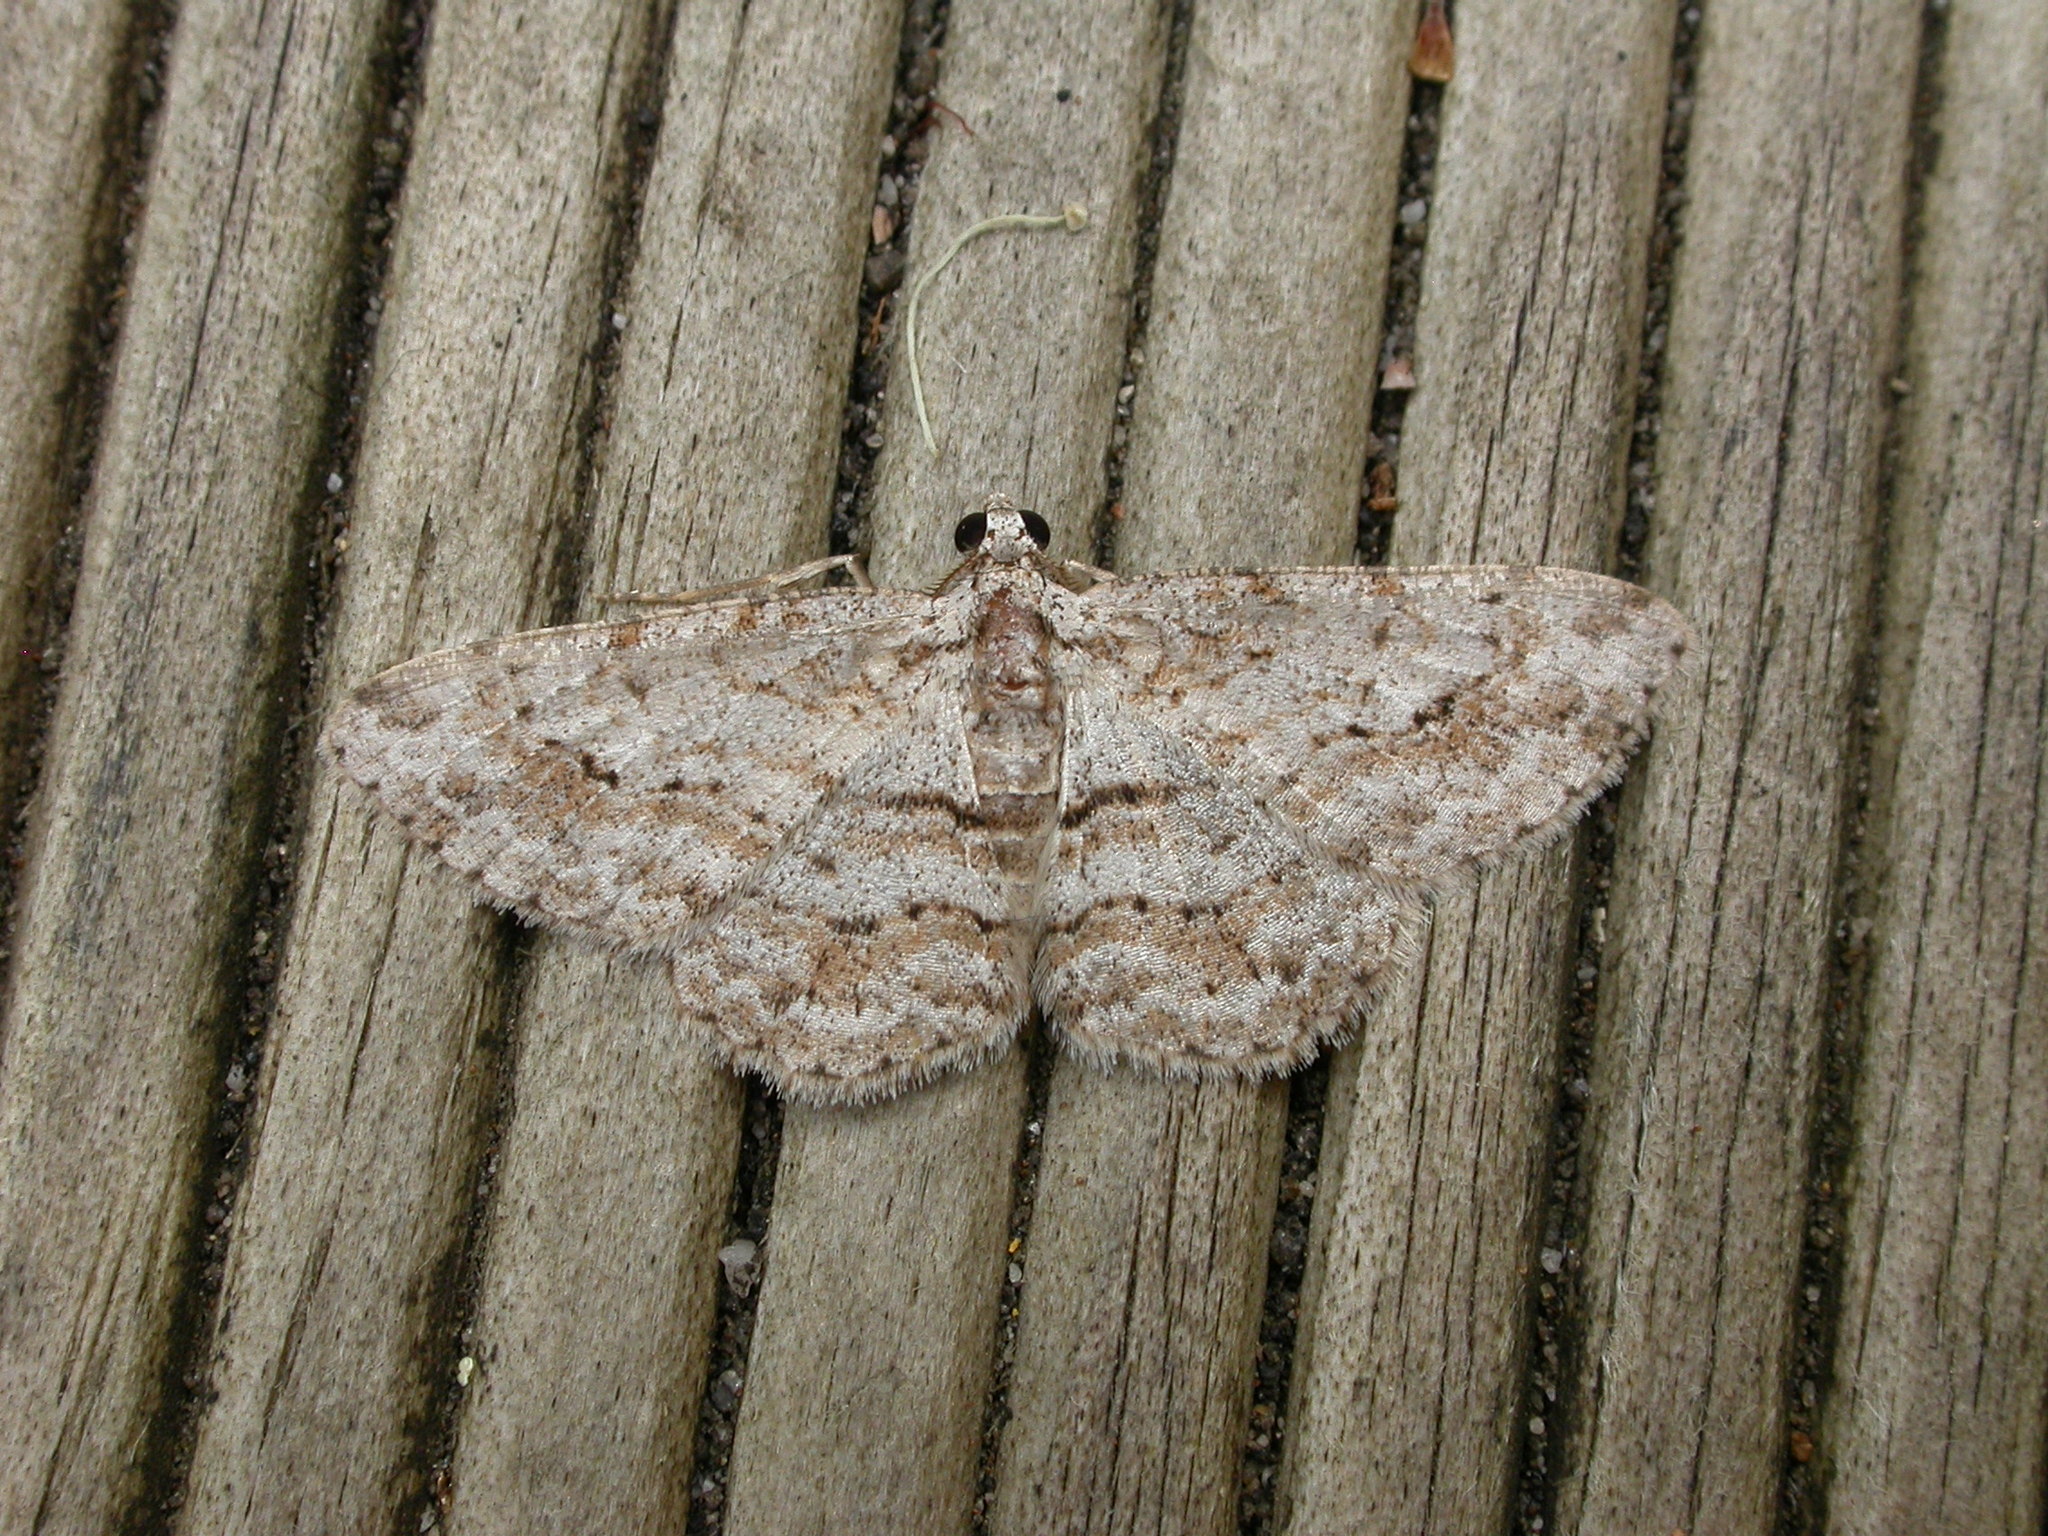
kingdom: Animalia
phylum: Arthropoda
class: Insecta
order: Lepidoptera
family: Geometridae
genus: Didymoctenia
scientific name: Didymoctenia exsuperata
